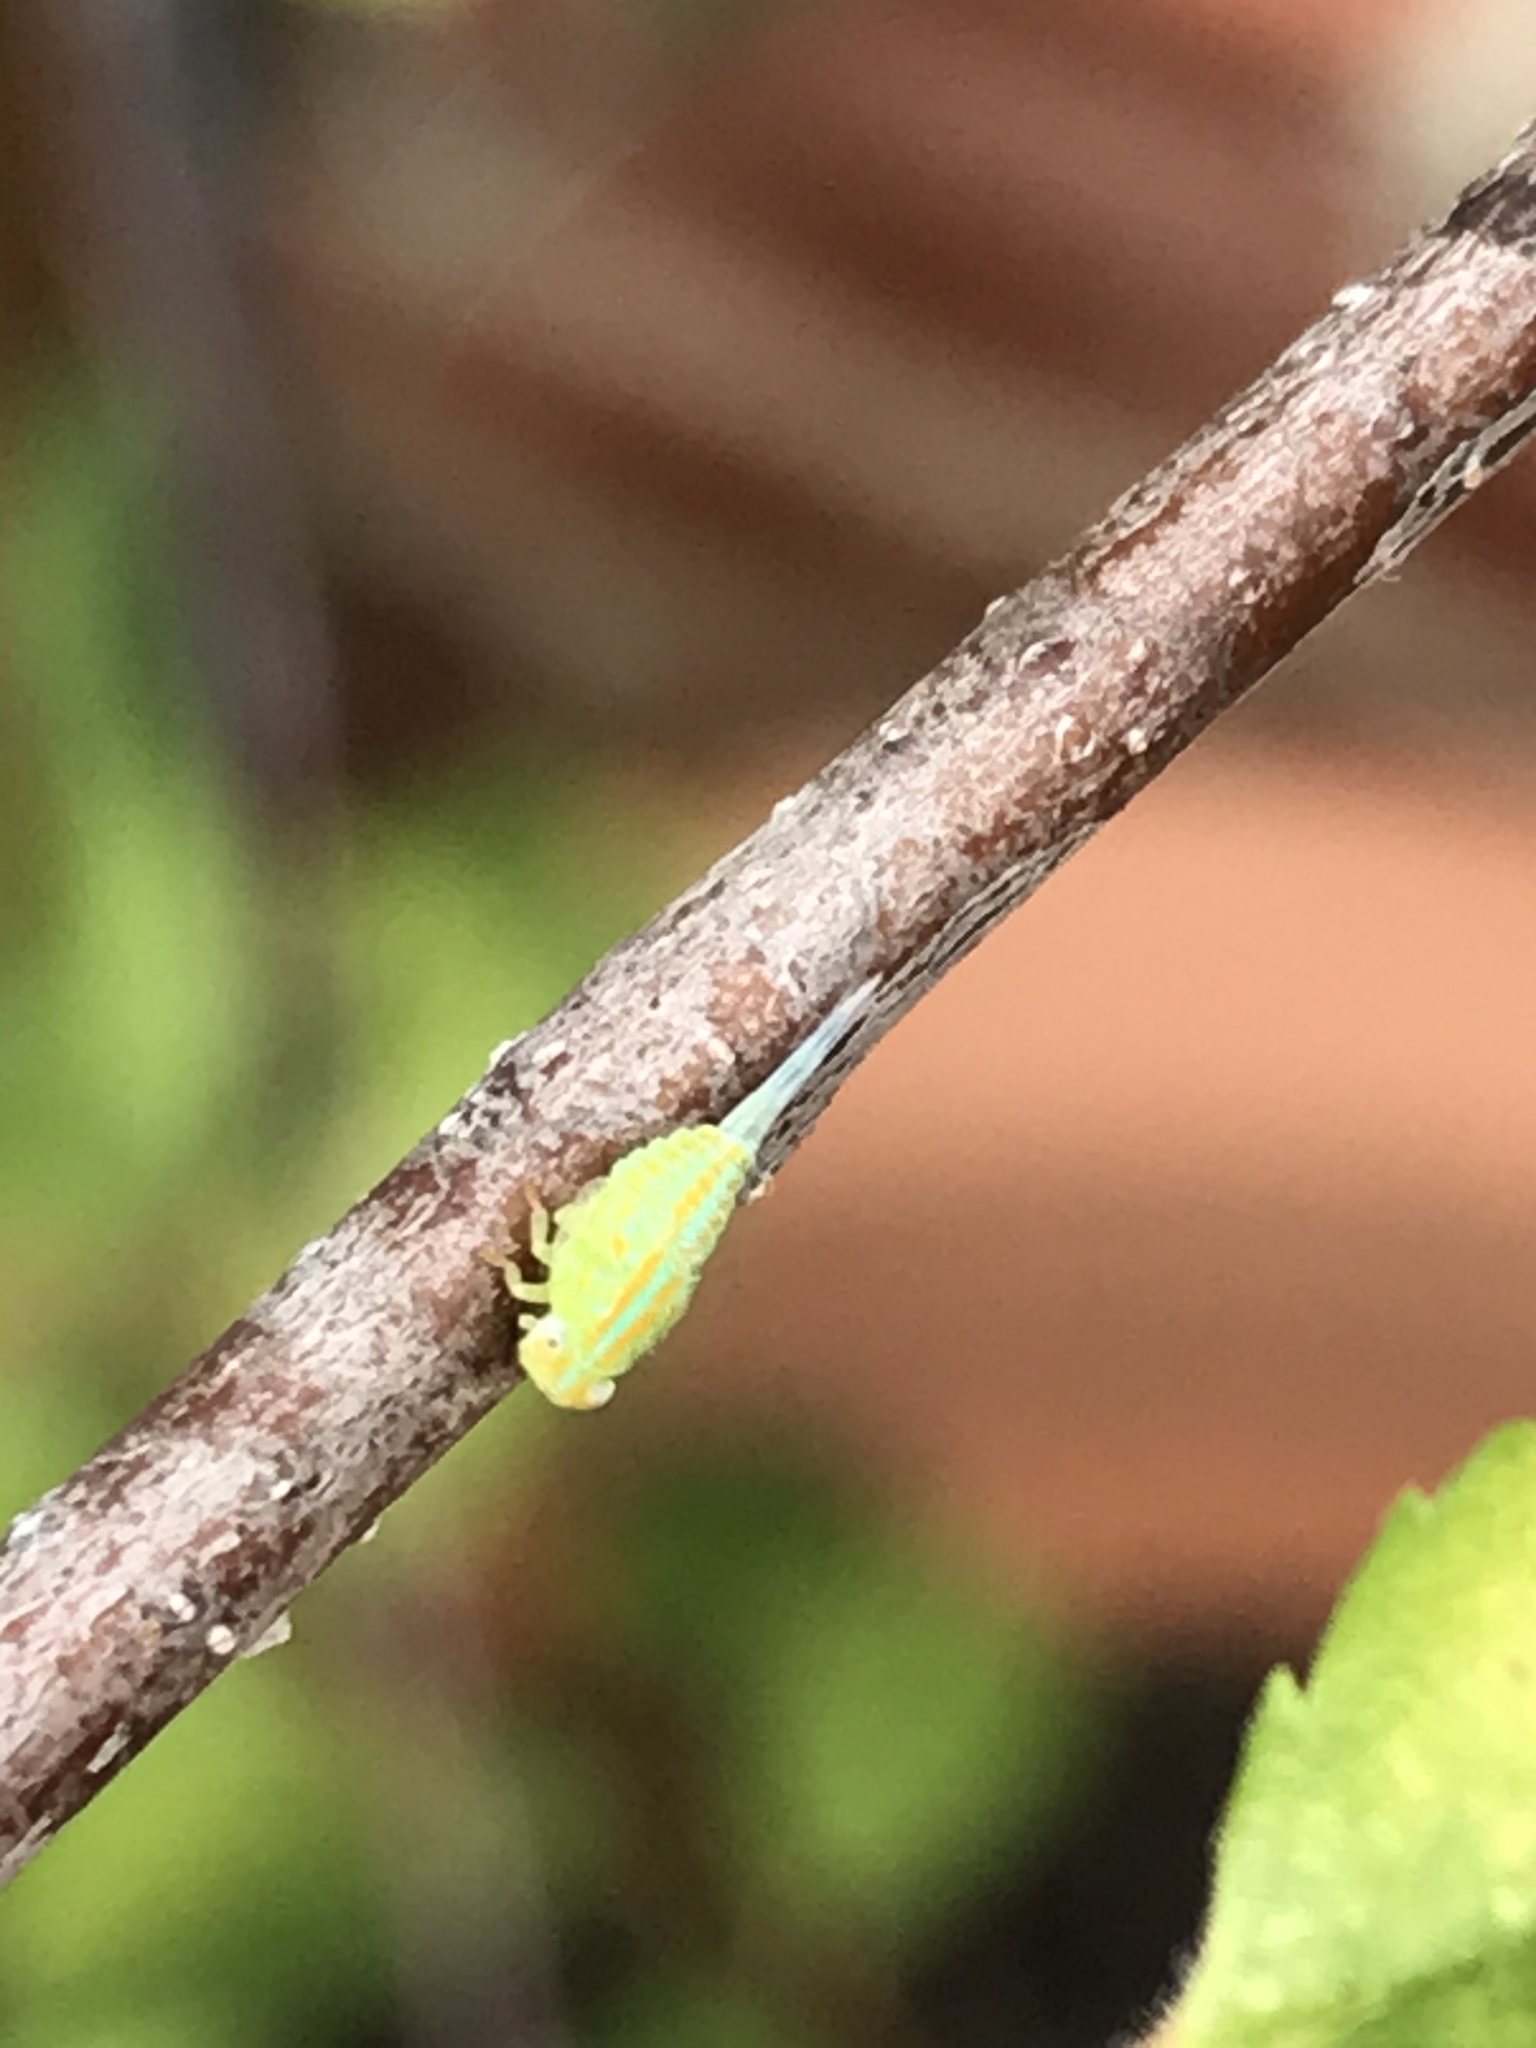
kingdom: Animalia
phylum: Arthropoda
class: Insecta
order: Hemiptera
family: Issidae
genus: Aplos
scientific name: Aplos simplex
